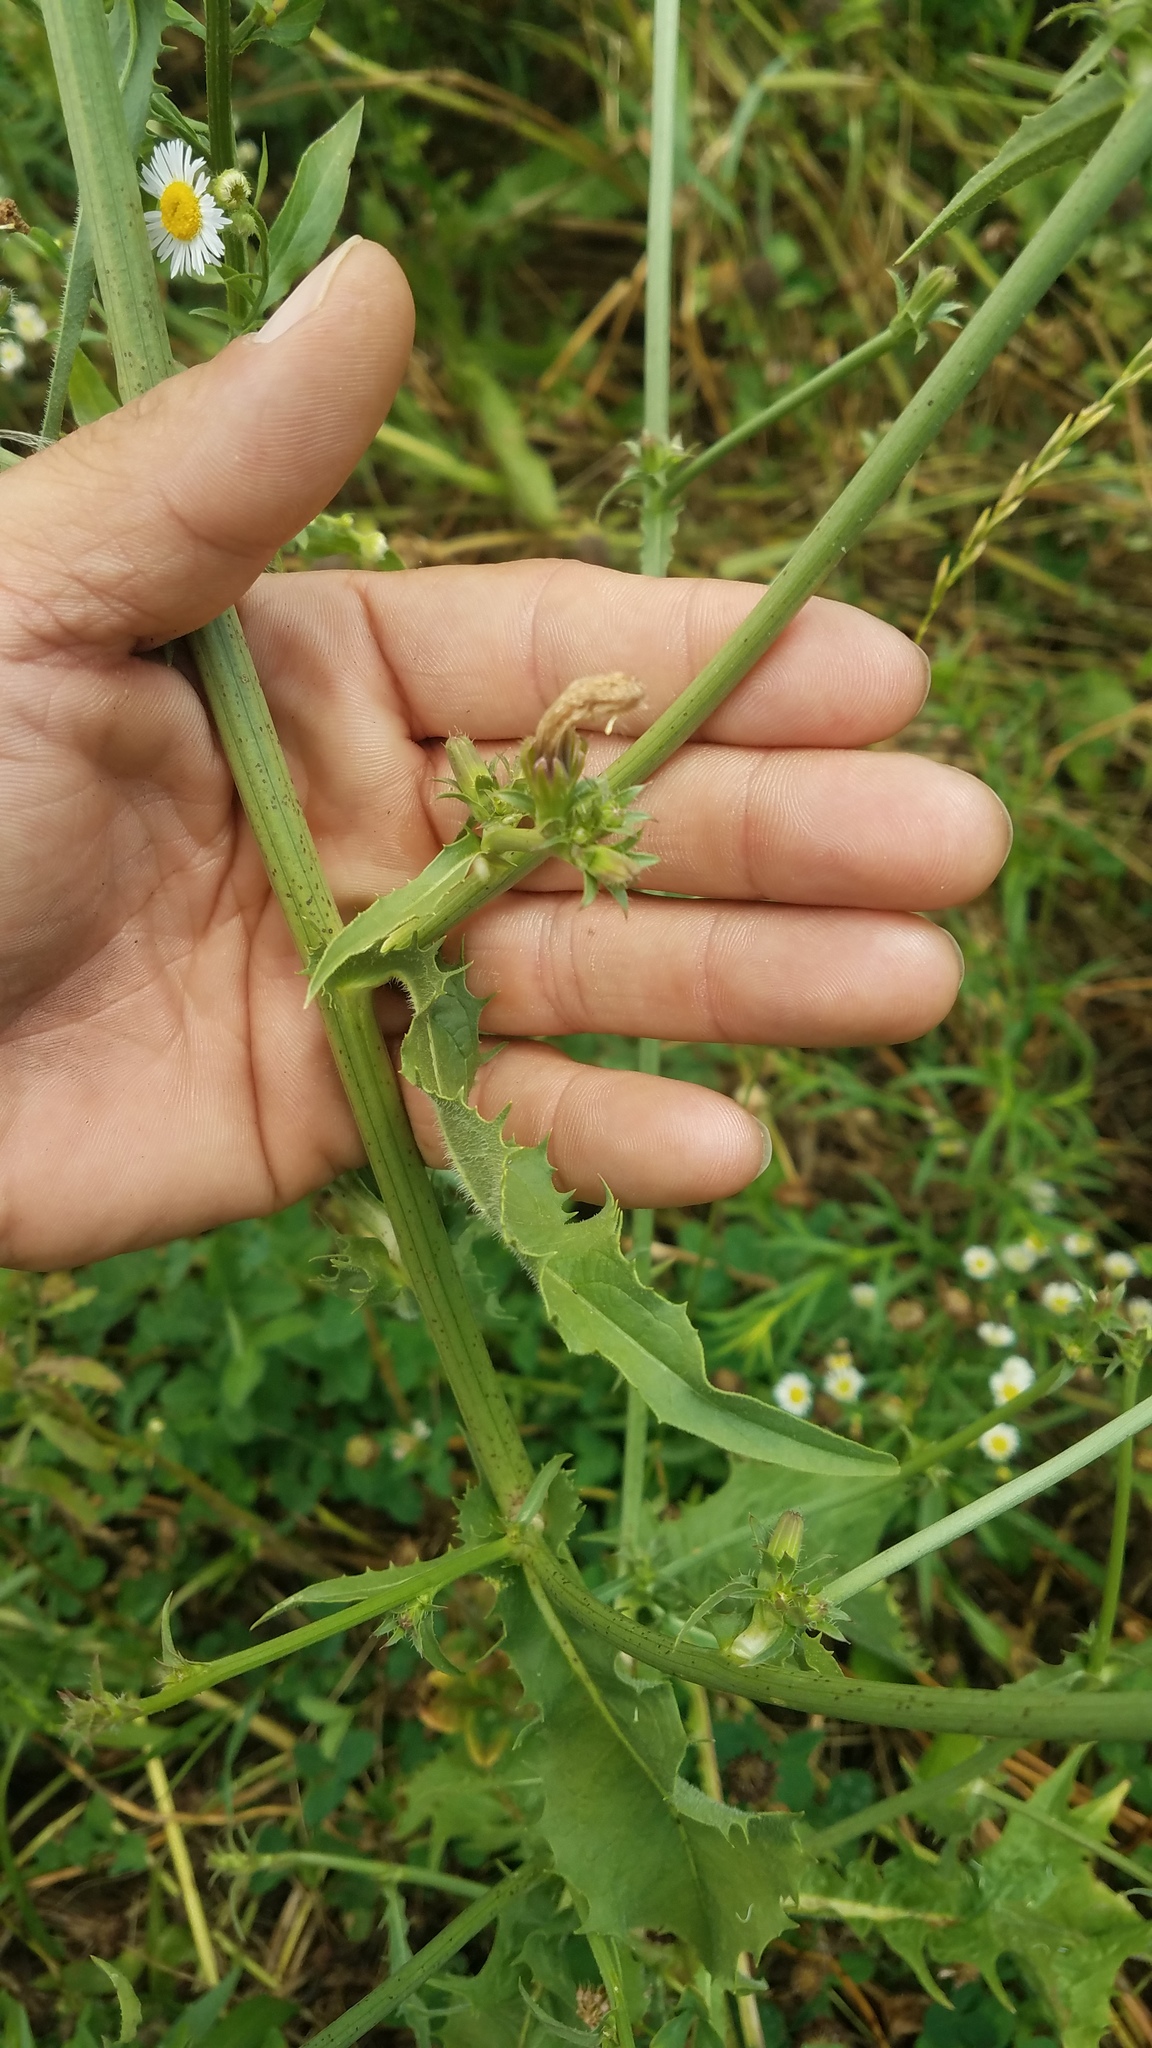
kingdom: Plantae
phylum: Tracheophyta
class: Magnoliopsida
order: Asterales
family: Asteraceae
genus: Cichorium
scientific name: Cichorium intybus
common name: Chicory
